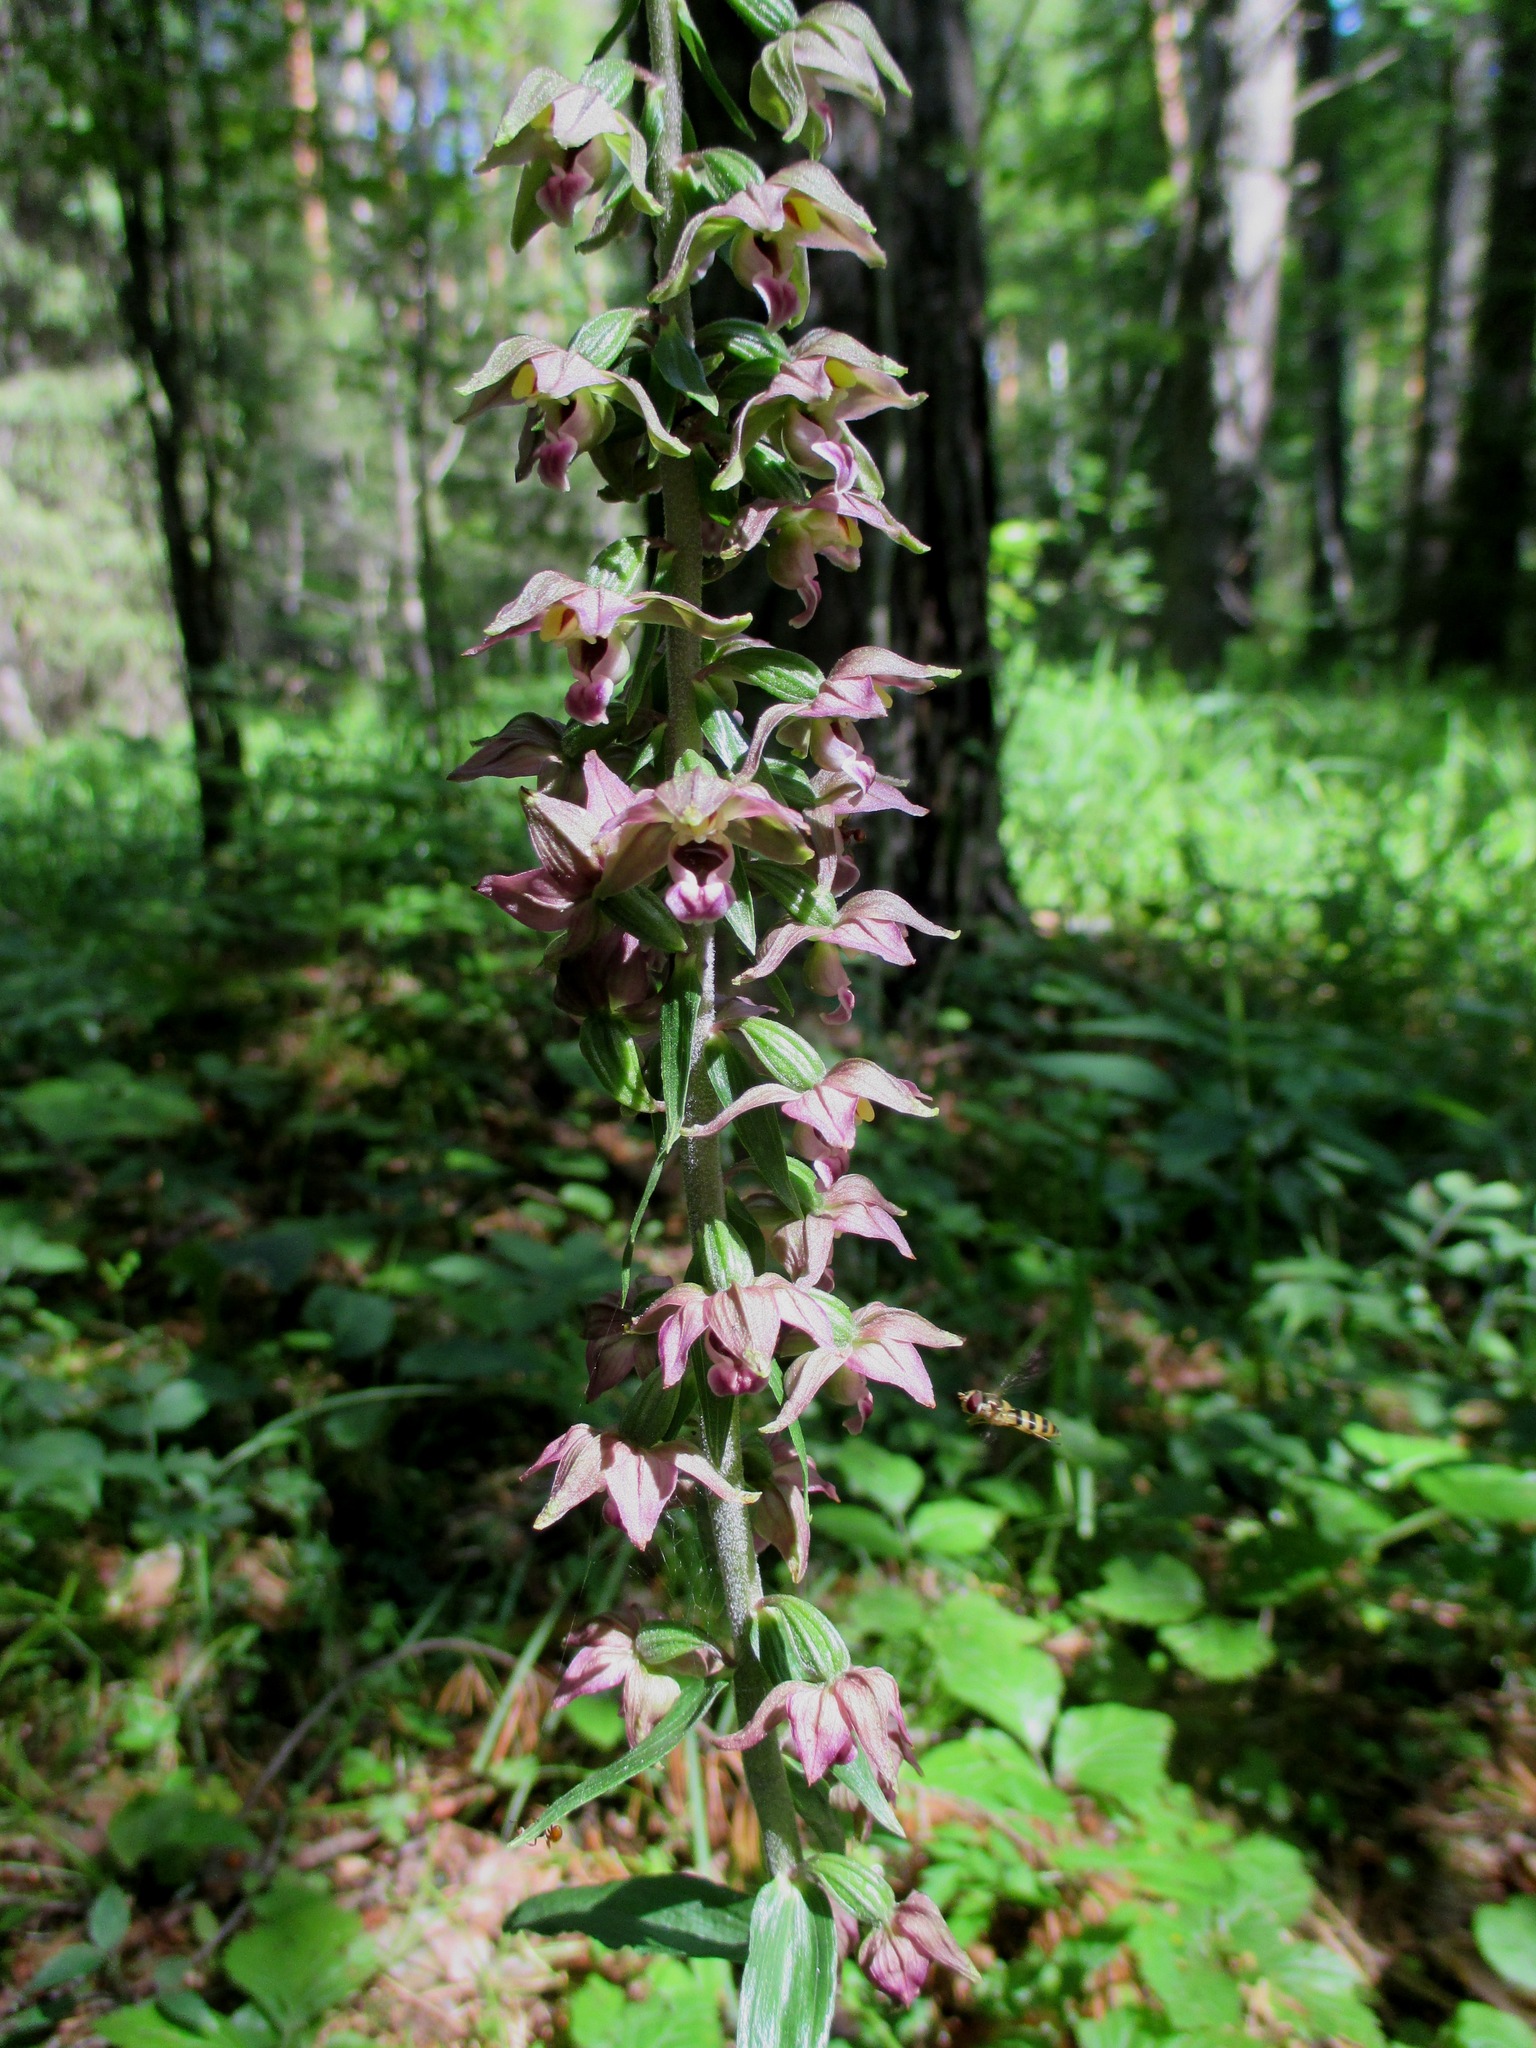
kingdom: Plantae
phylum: Tracheophyta
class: Liliopsida
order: Asparagales
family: Orchidaceae
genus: Epipactis
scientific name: Epipactis helleborine
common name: Broad-leaved helleborine
